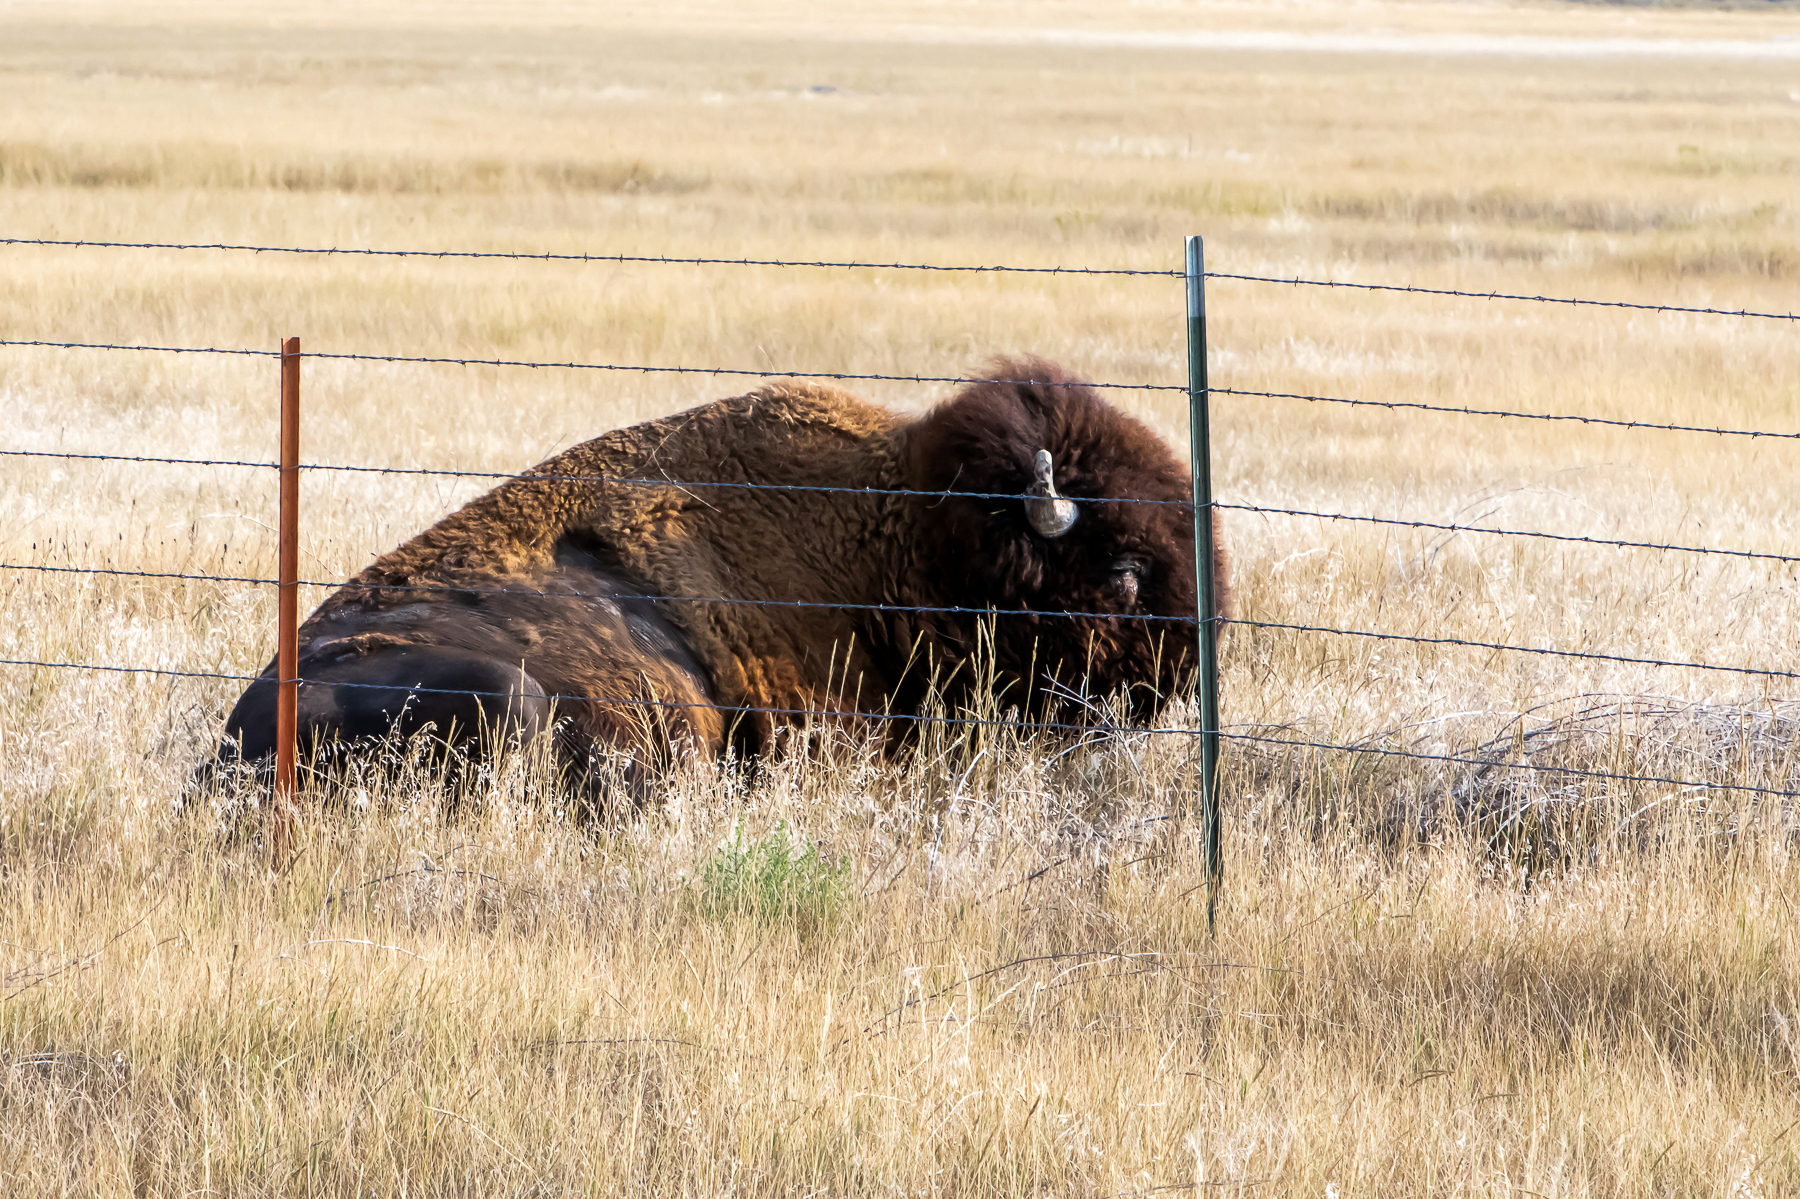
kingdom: Animalia
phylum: Chordata
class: Mammalia
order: Artiodactyla
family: Bovidae
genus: Bison
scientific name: Bison bison
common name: American bison
